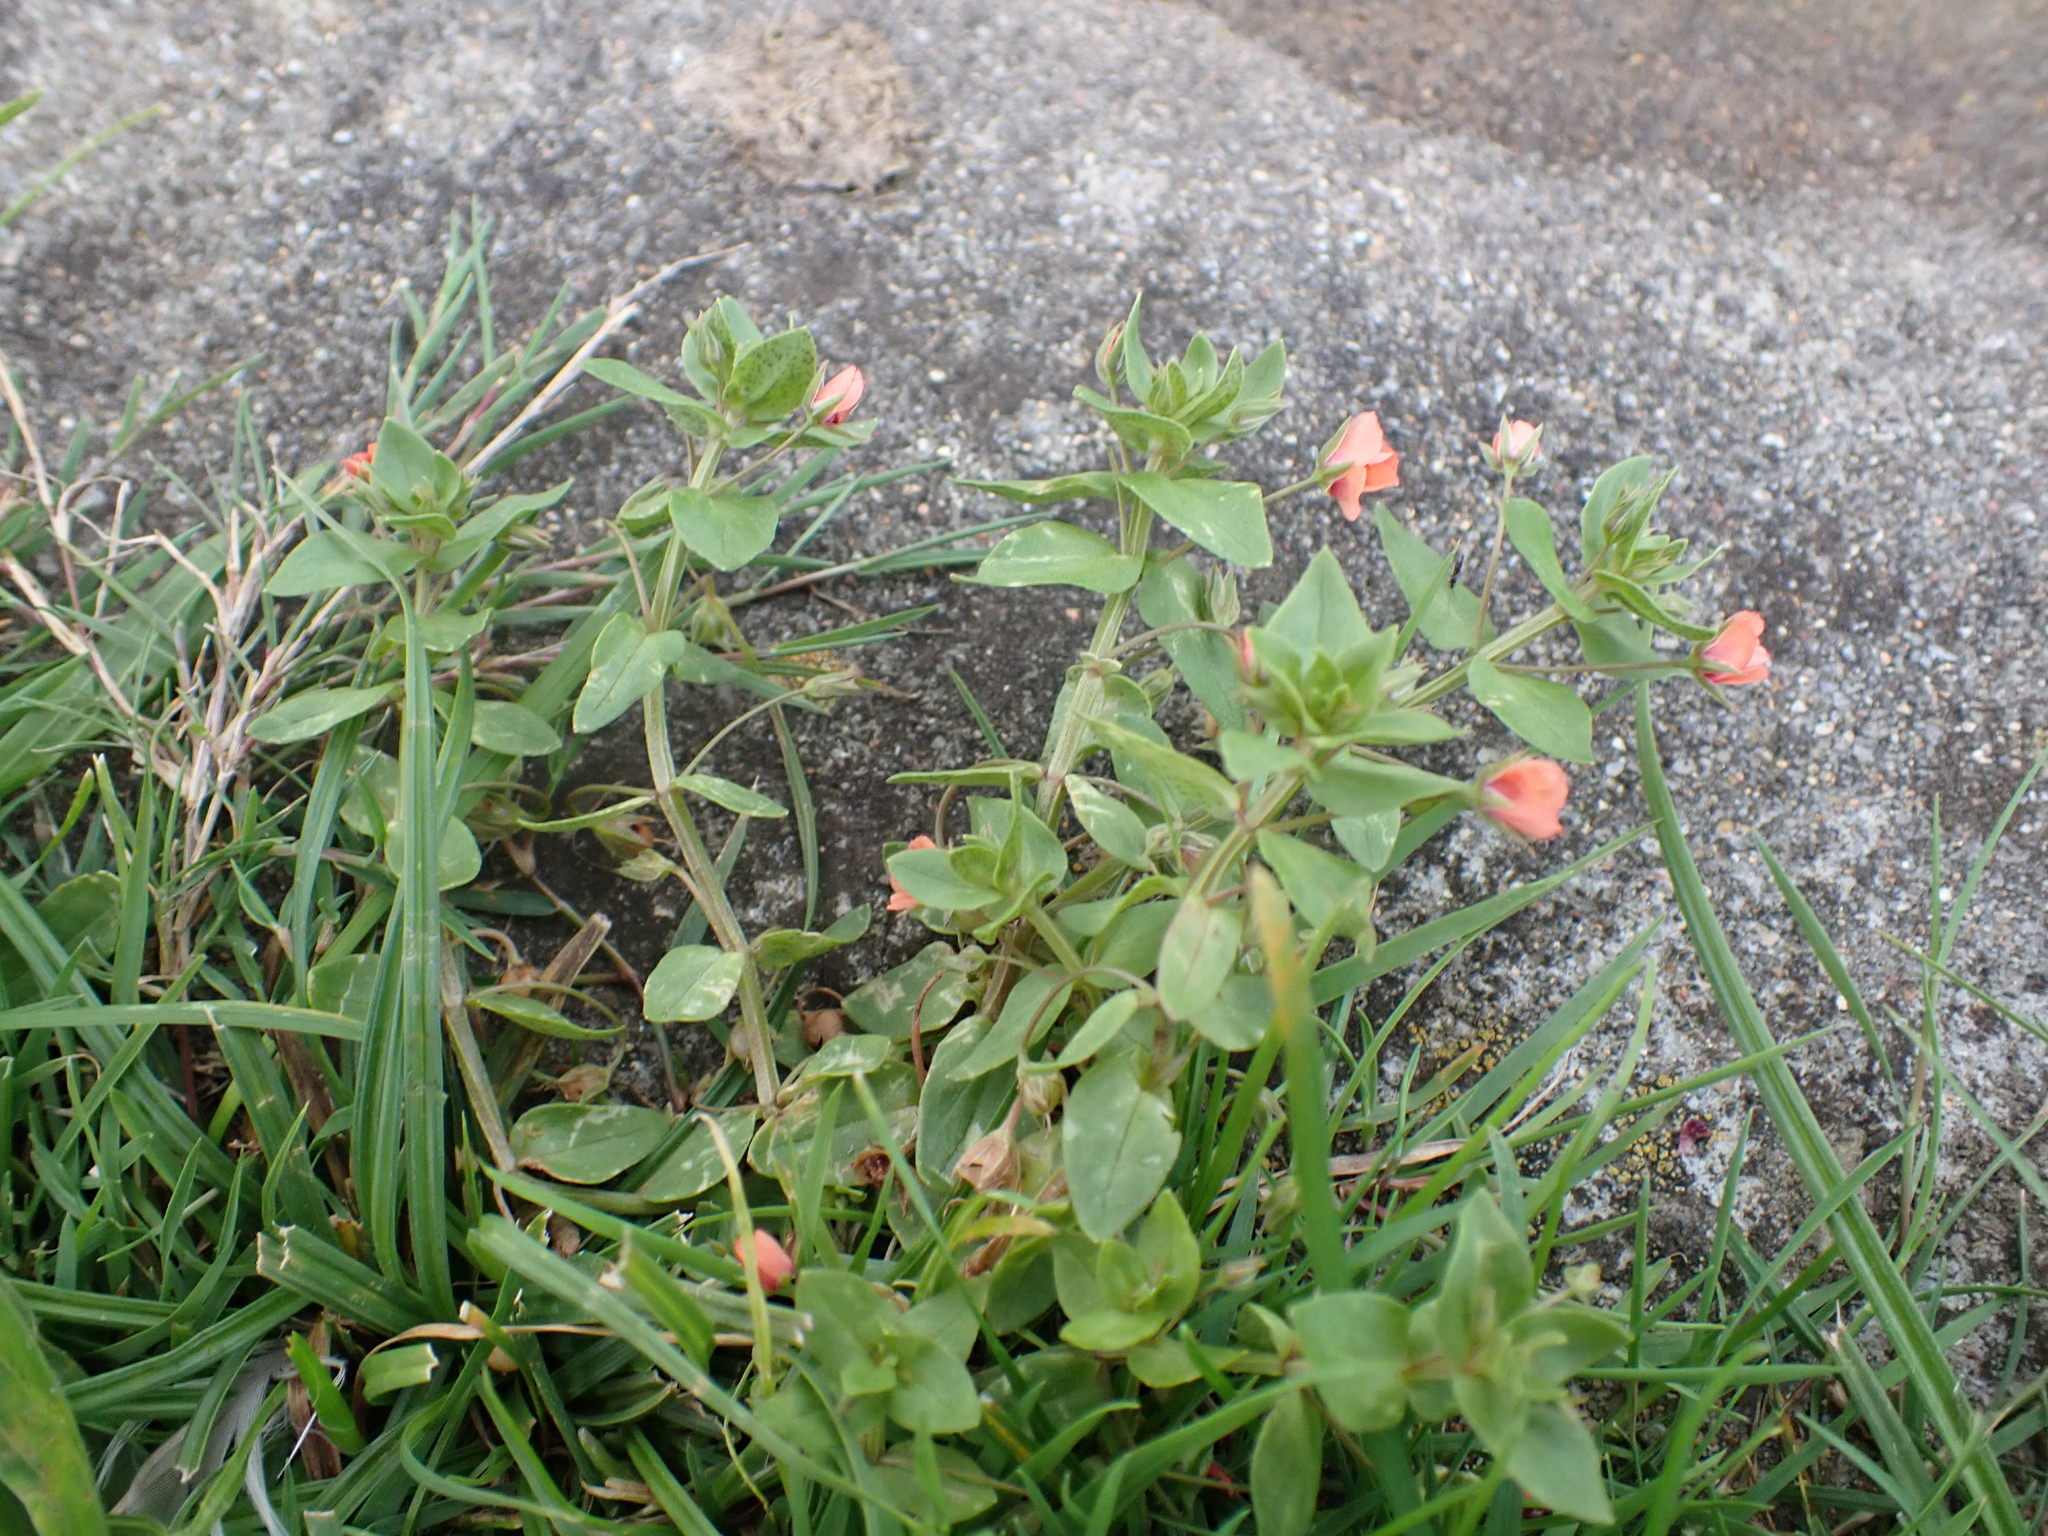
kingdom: Plantae
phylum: Tracheophyta
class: Magnoliopsida
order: Ericales
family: Primulaceae
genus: Lysimachia
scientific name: Lysimachia arvensis
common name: Scarlet pimpernel
